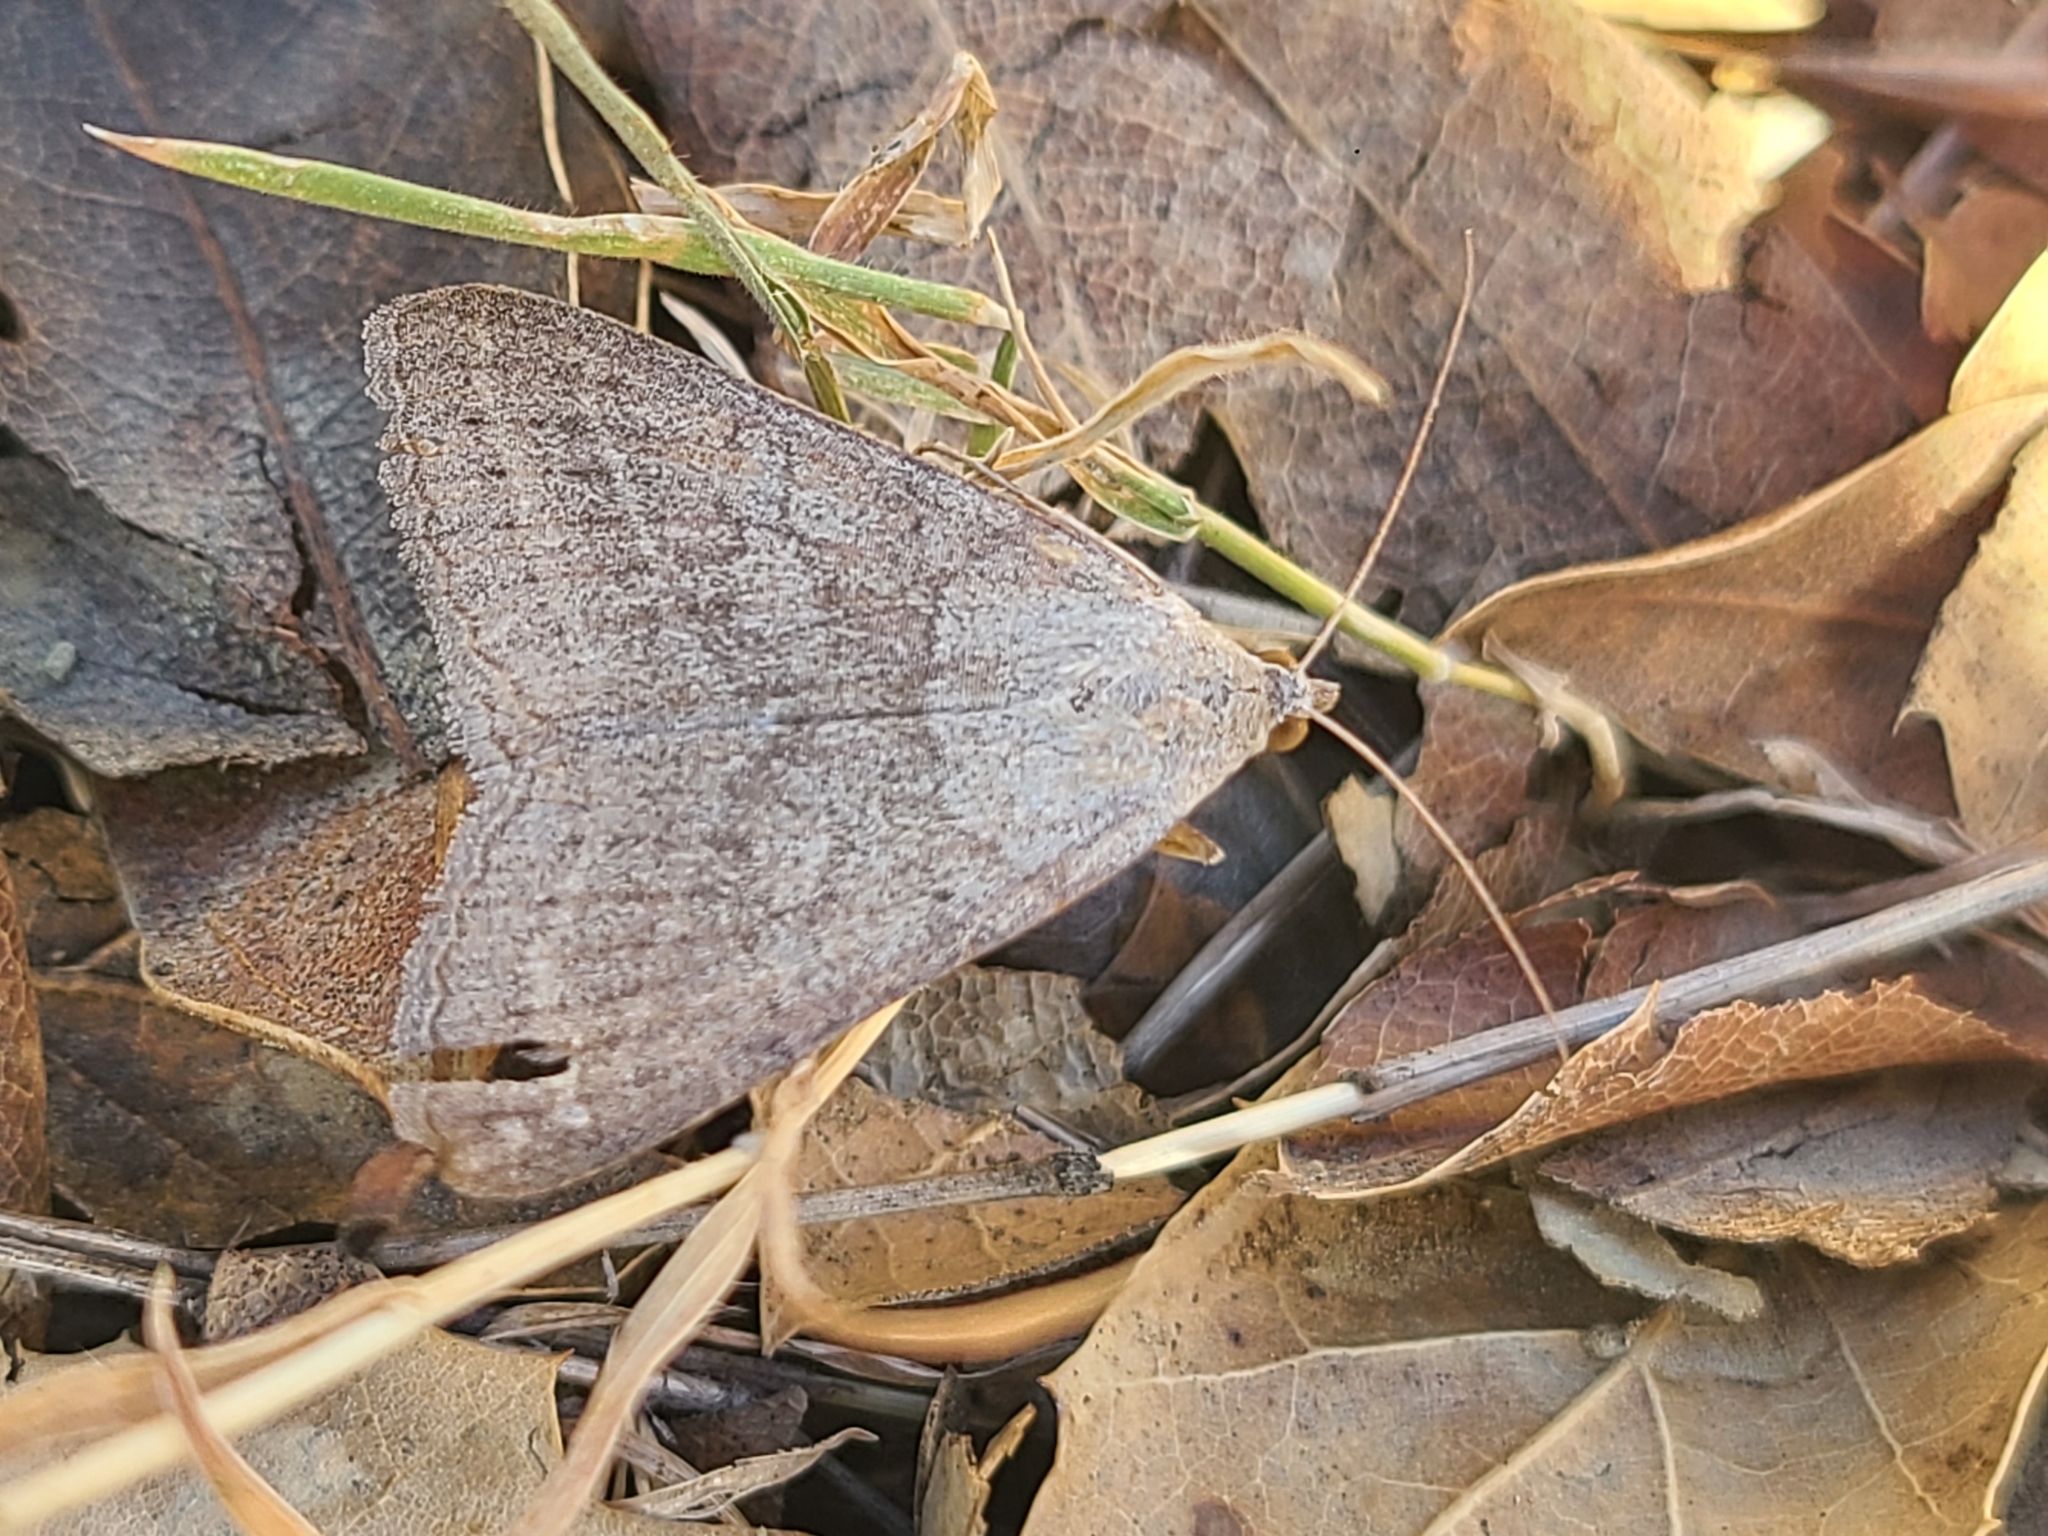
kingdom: Animalia
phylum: Arthropoda
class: Insecta
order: Lepidoptera
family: Erebidae
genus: Caenurgia
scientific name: Caenurgia togataria
